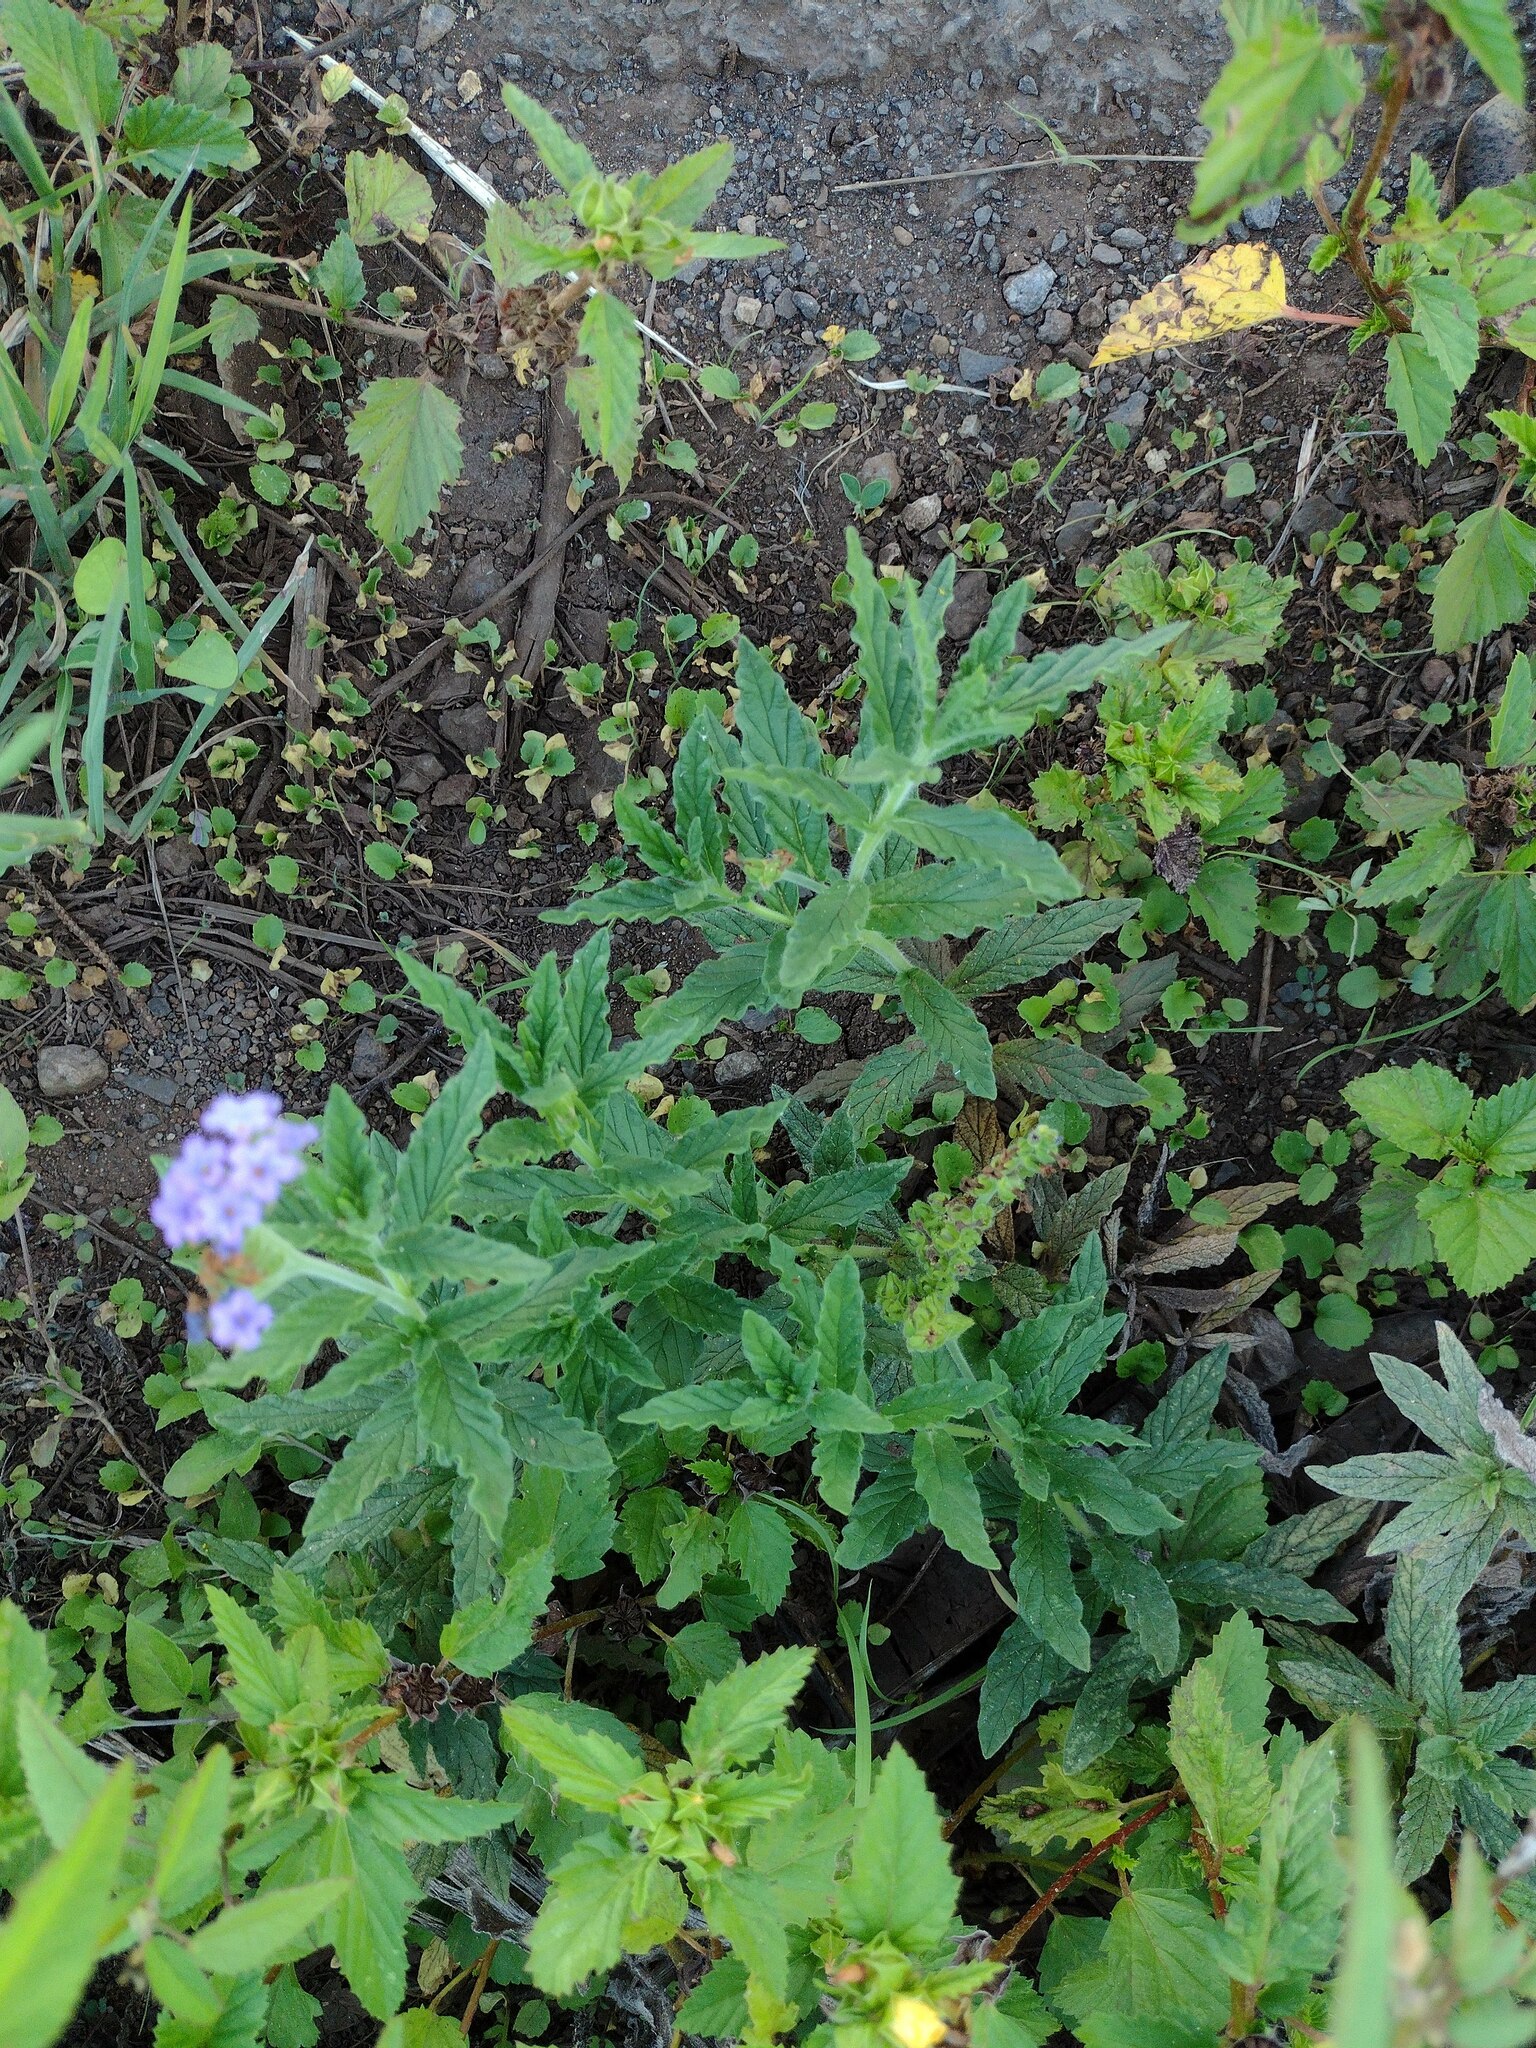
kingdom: Plantae
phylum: Tracheophyta
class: Magnoliopsida
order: Boraginales
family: Heliotropiaceae
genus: Heliotropium
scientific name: Heliotropium amplexicaule
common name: Clasping heliotrope
